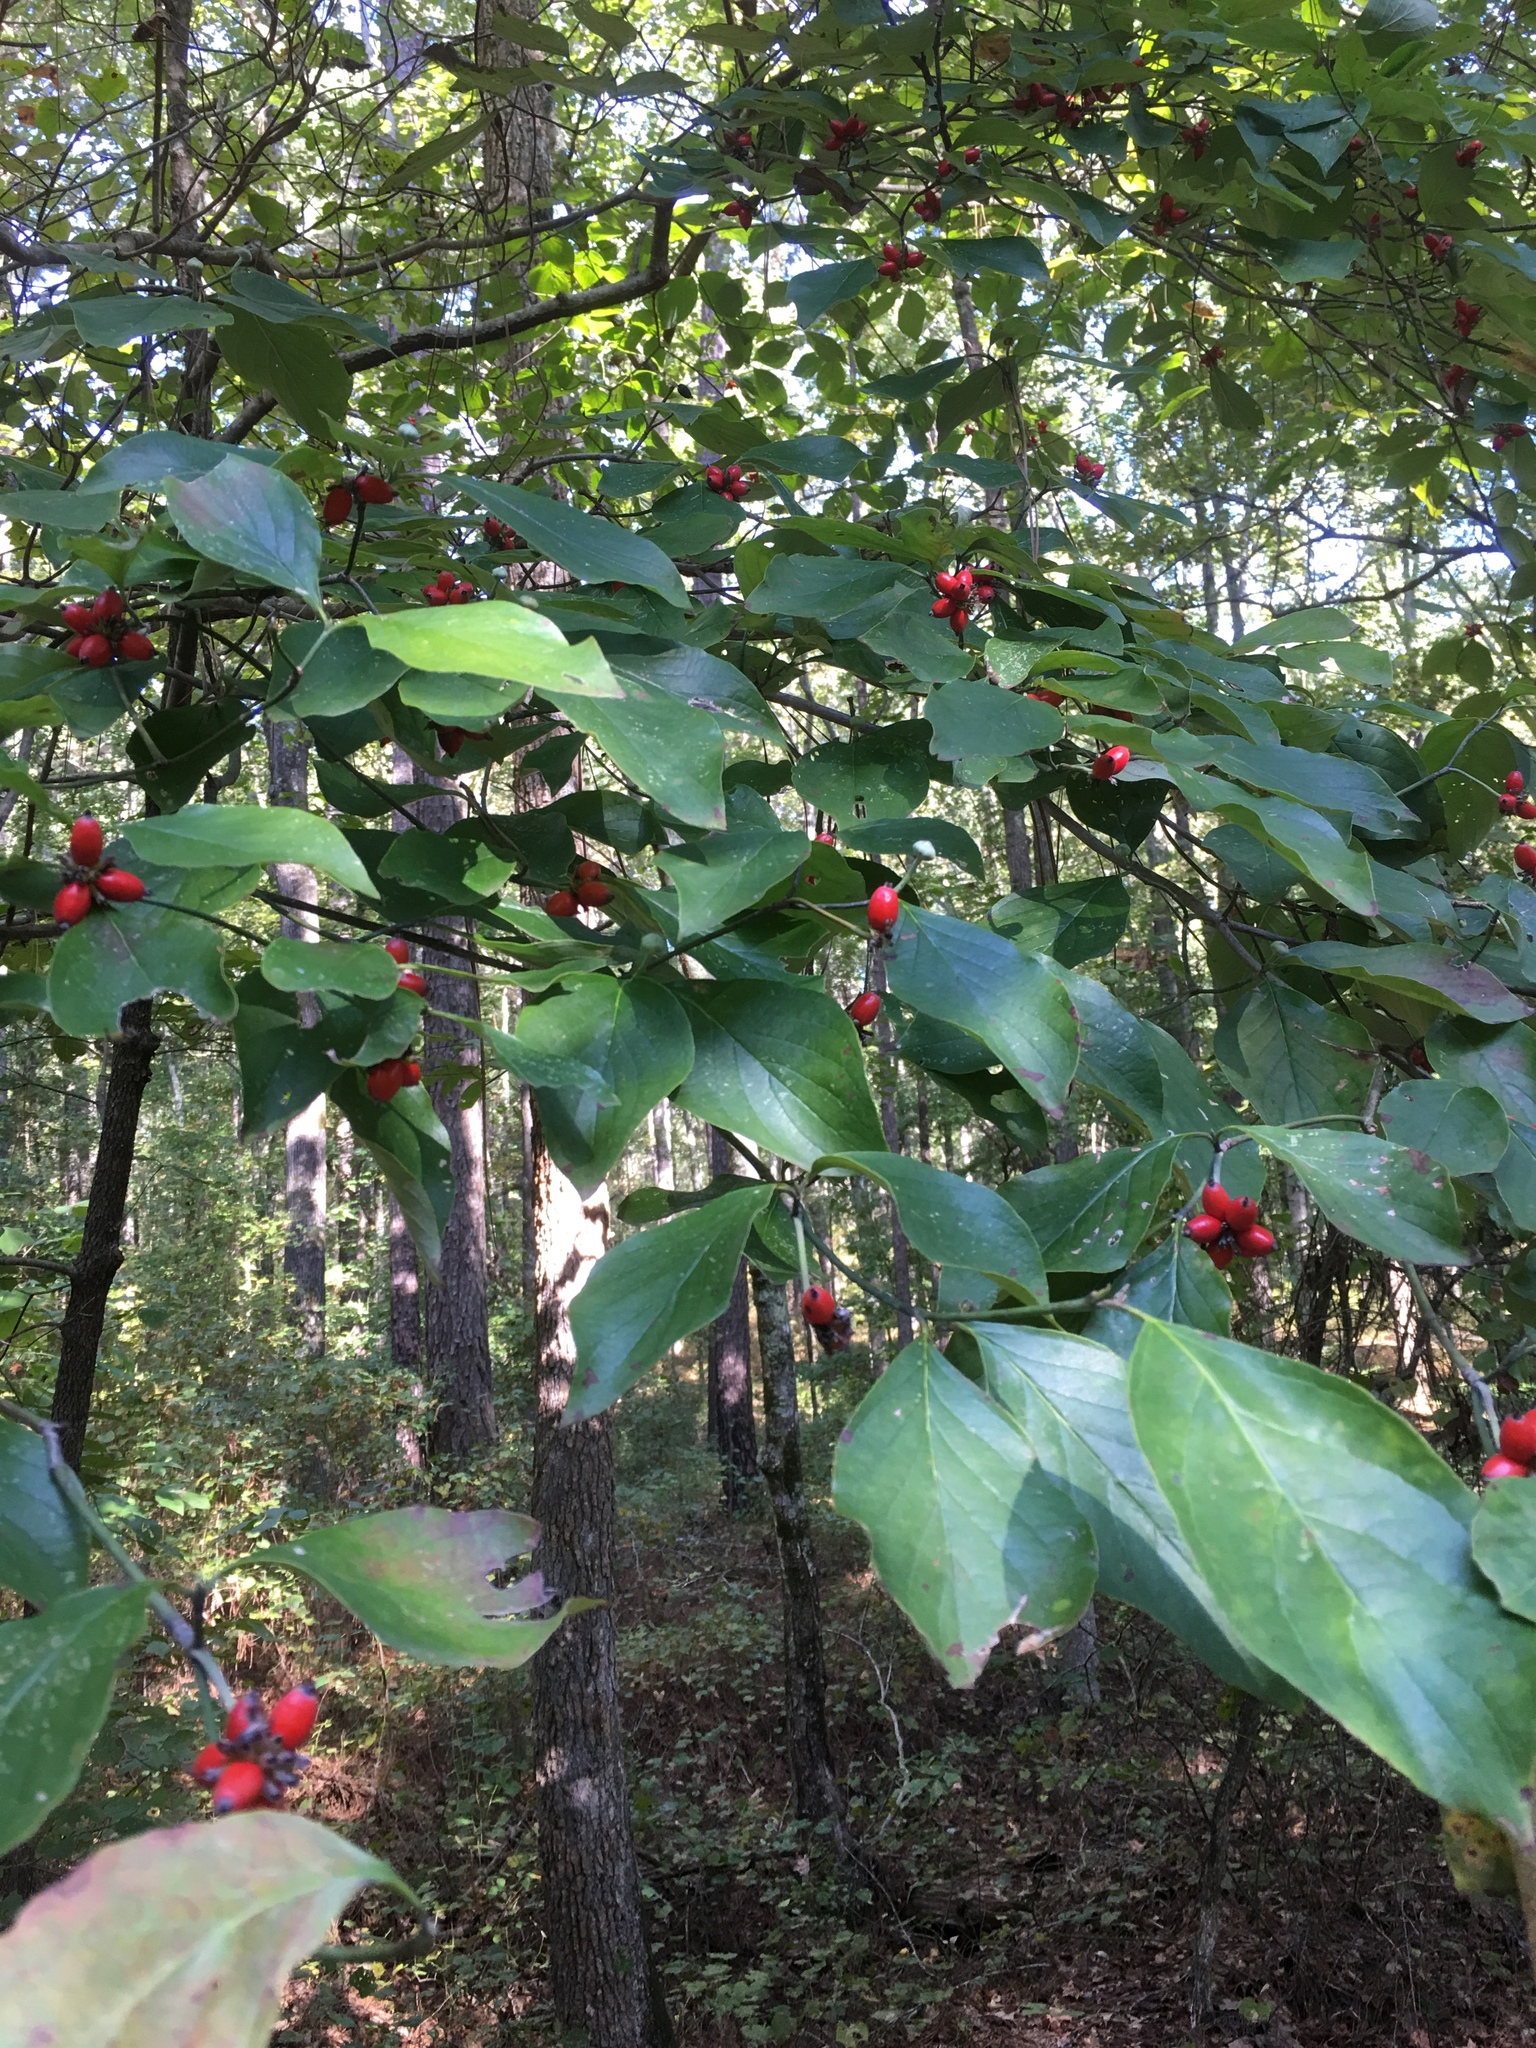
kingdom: Plantae
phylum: Tracheophyta
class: Magnoliopsida
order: Cornales
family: Cornaceae
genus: Cornus
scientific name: Cornus florida
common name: Flowering dogwood
